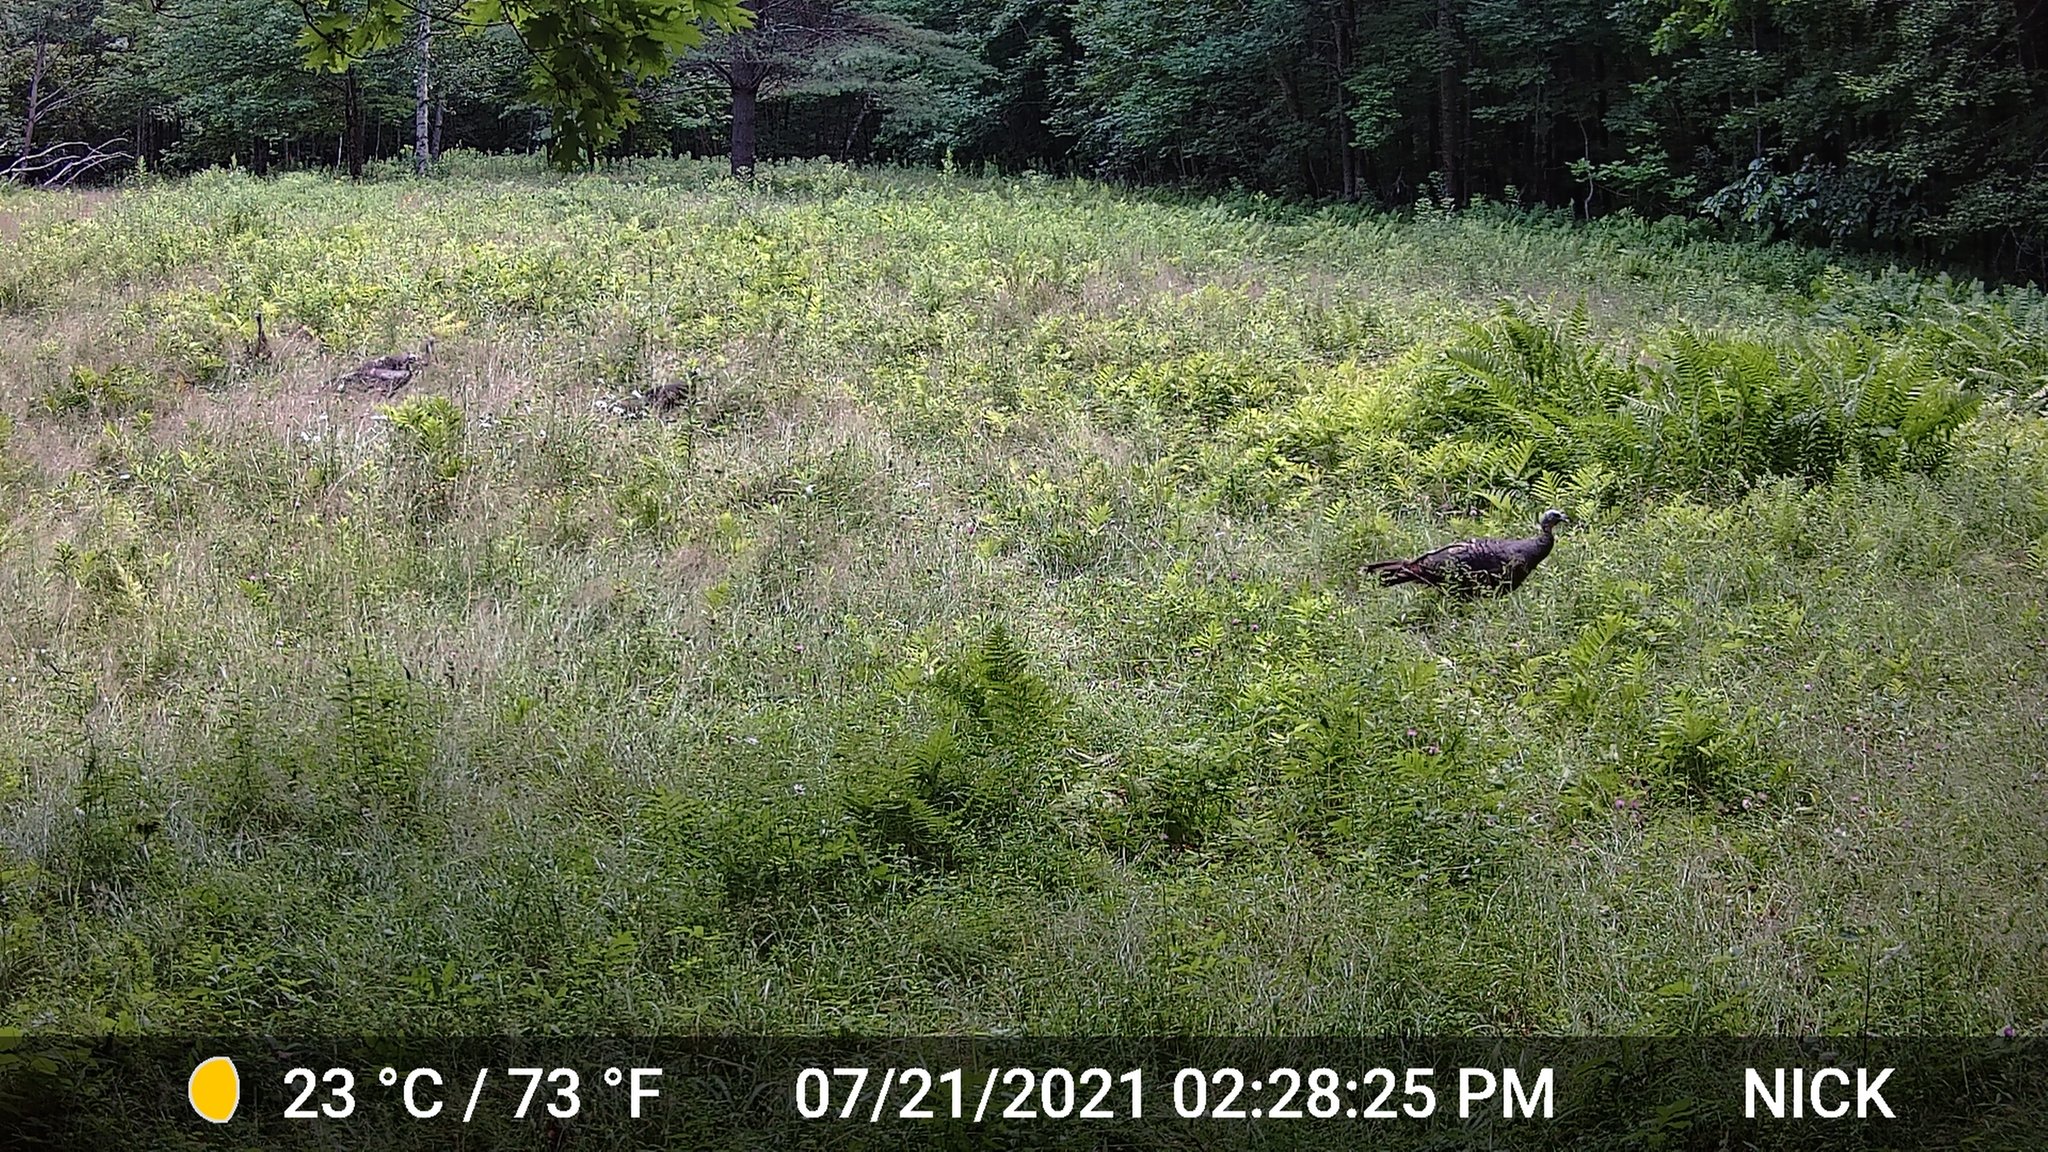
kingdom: Animalia
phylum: Chordata
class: Aves
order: Galliformes
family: Phasianidae
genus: Meleagris
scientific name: Meleagris gallopavo
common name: Wild turkey
